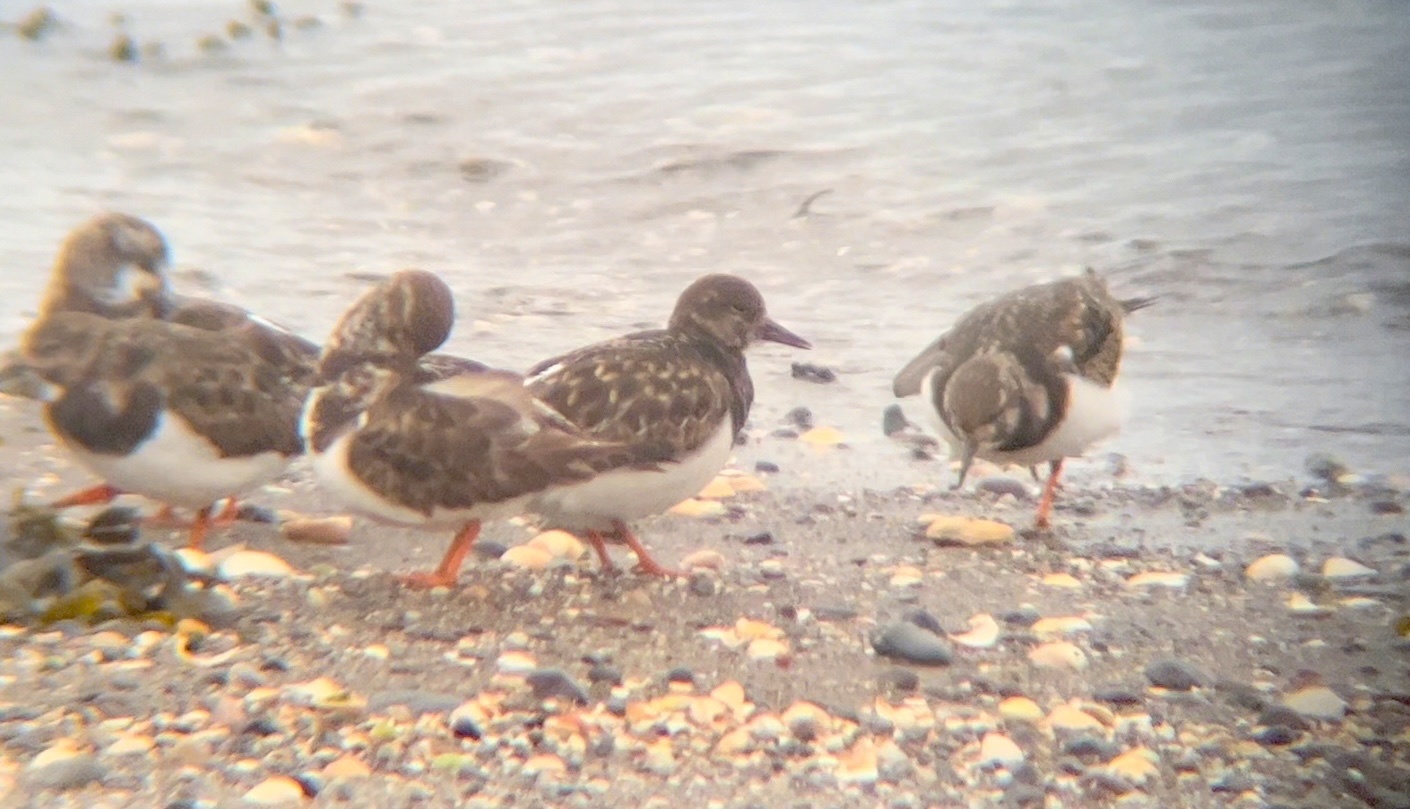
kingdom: Animalia
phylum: Chordata
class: Aves
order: Charadriiformes
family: Scolopacidae
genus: Arenaria
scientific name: Arenaria interpres
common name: Ruddy turnstone
